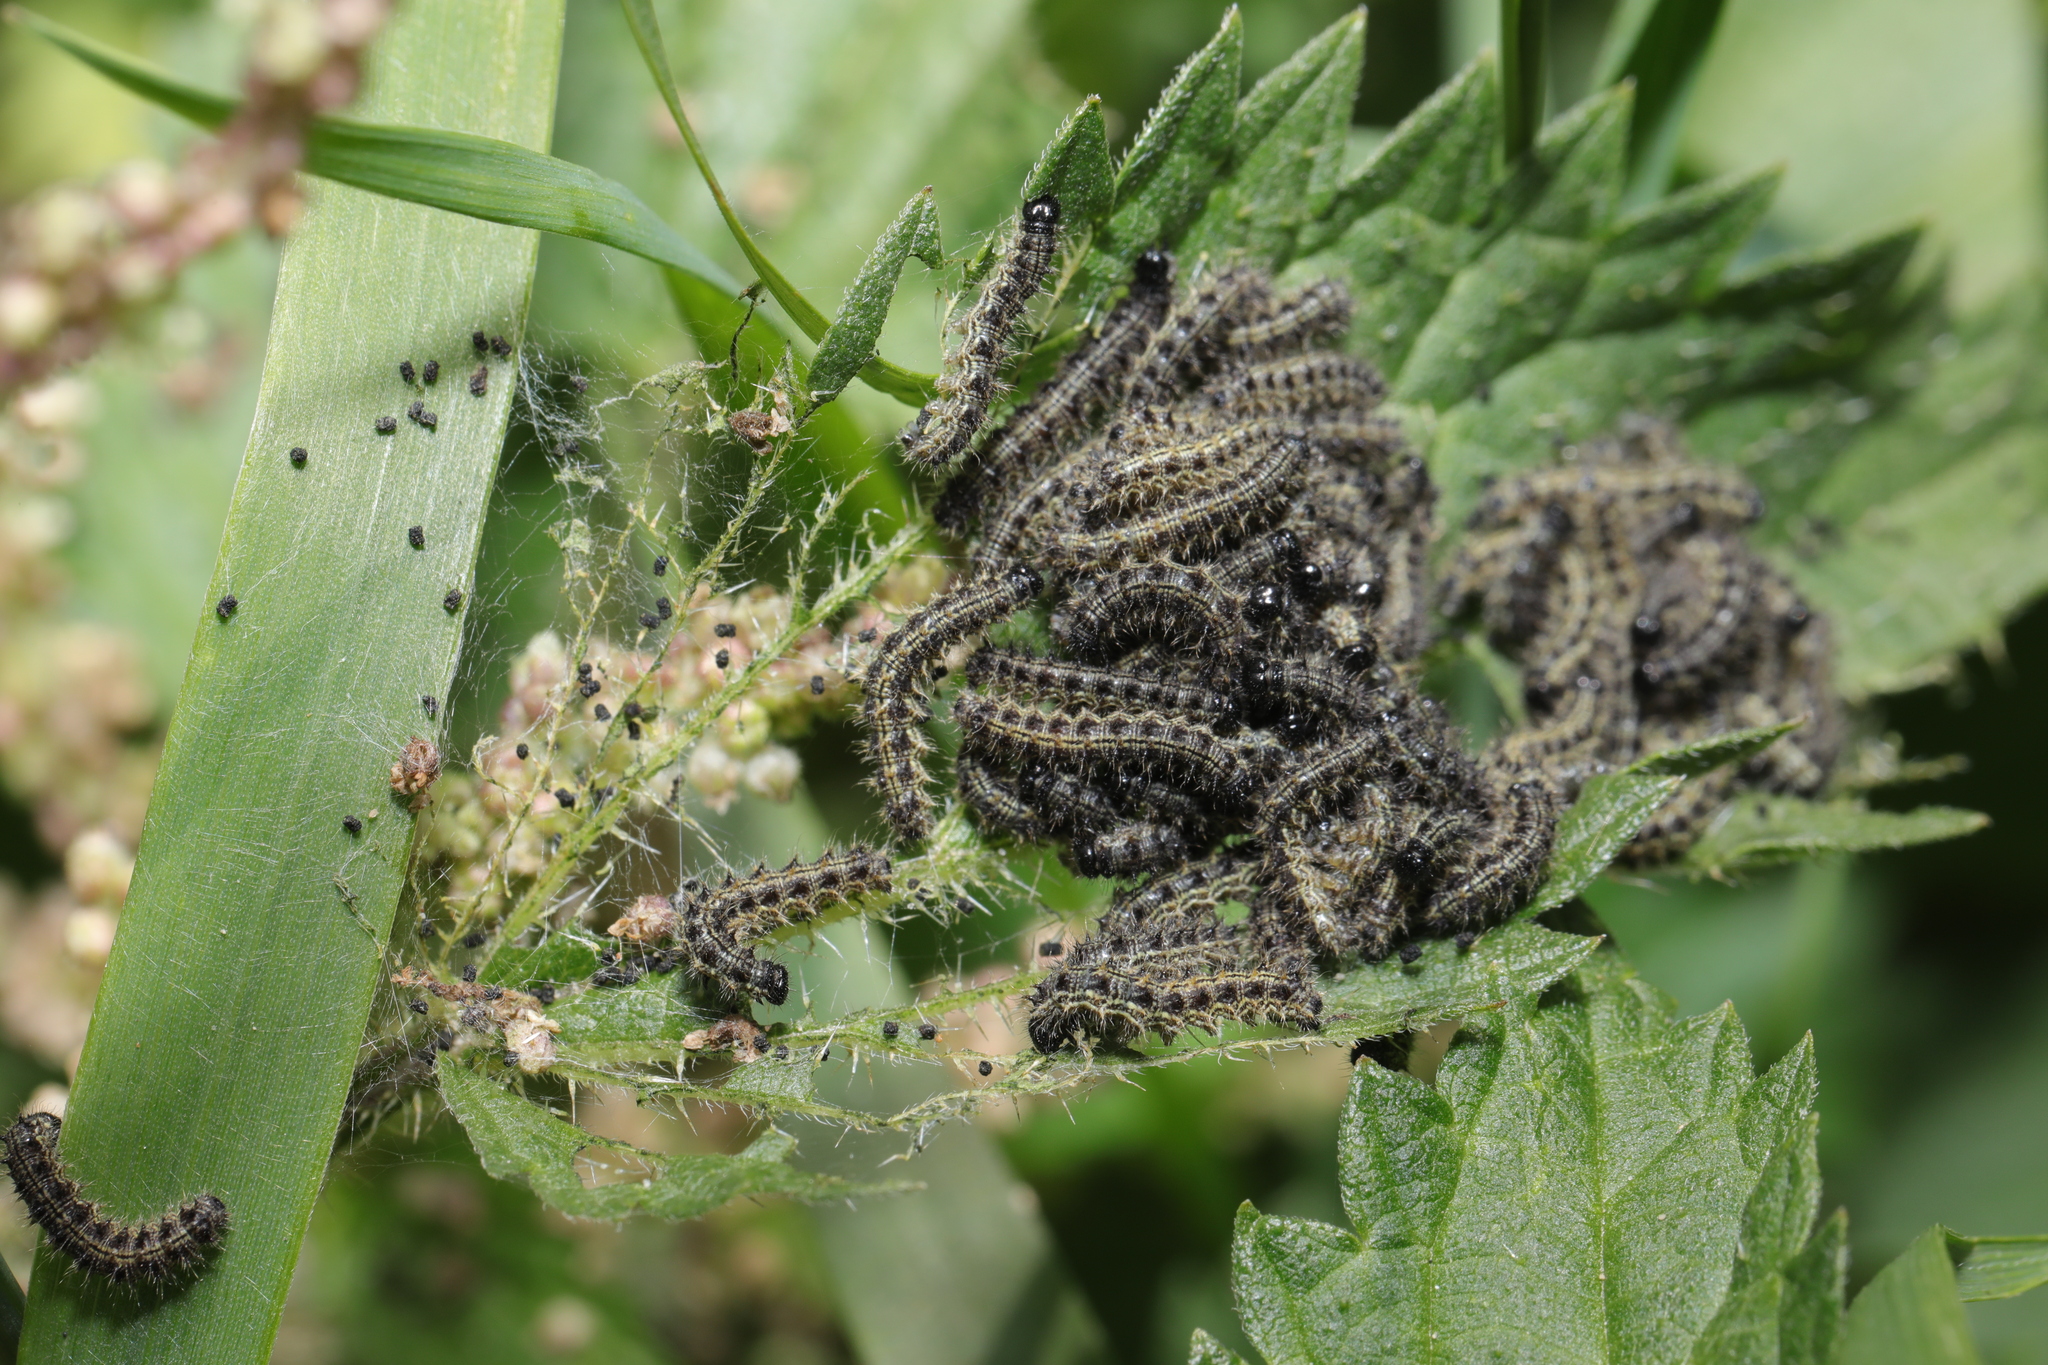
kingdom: Animalia
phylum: Arthropoda
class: Insecta
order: Lepidoptera
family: Nymphalidae
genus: Aglais
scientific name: Aglais urticae
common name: Small tortoiseshell
